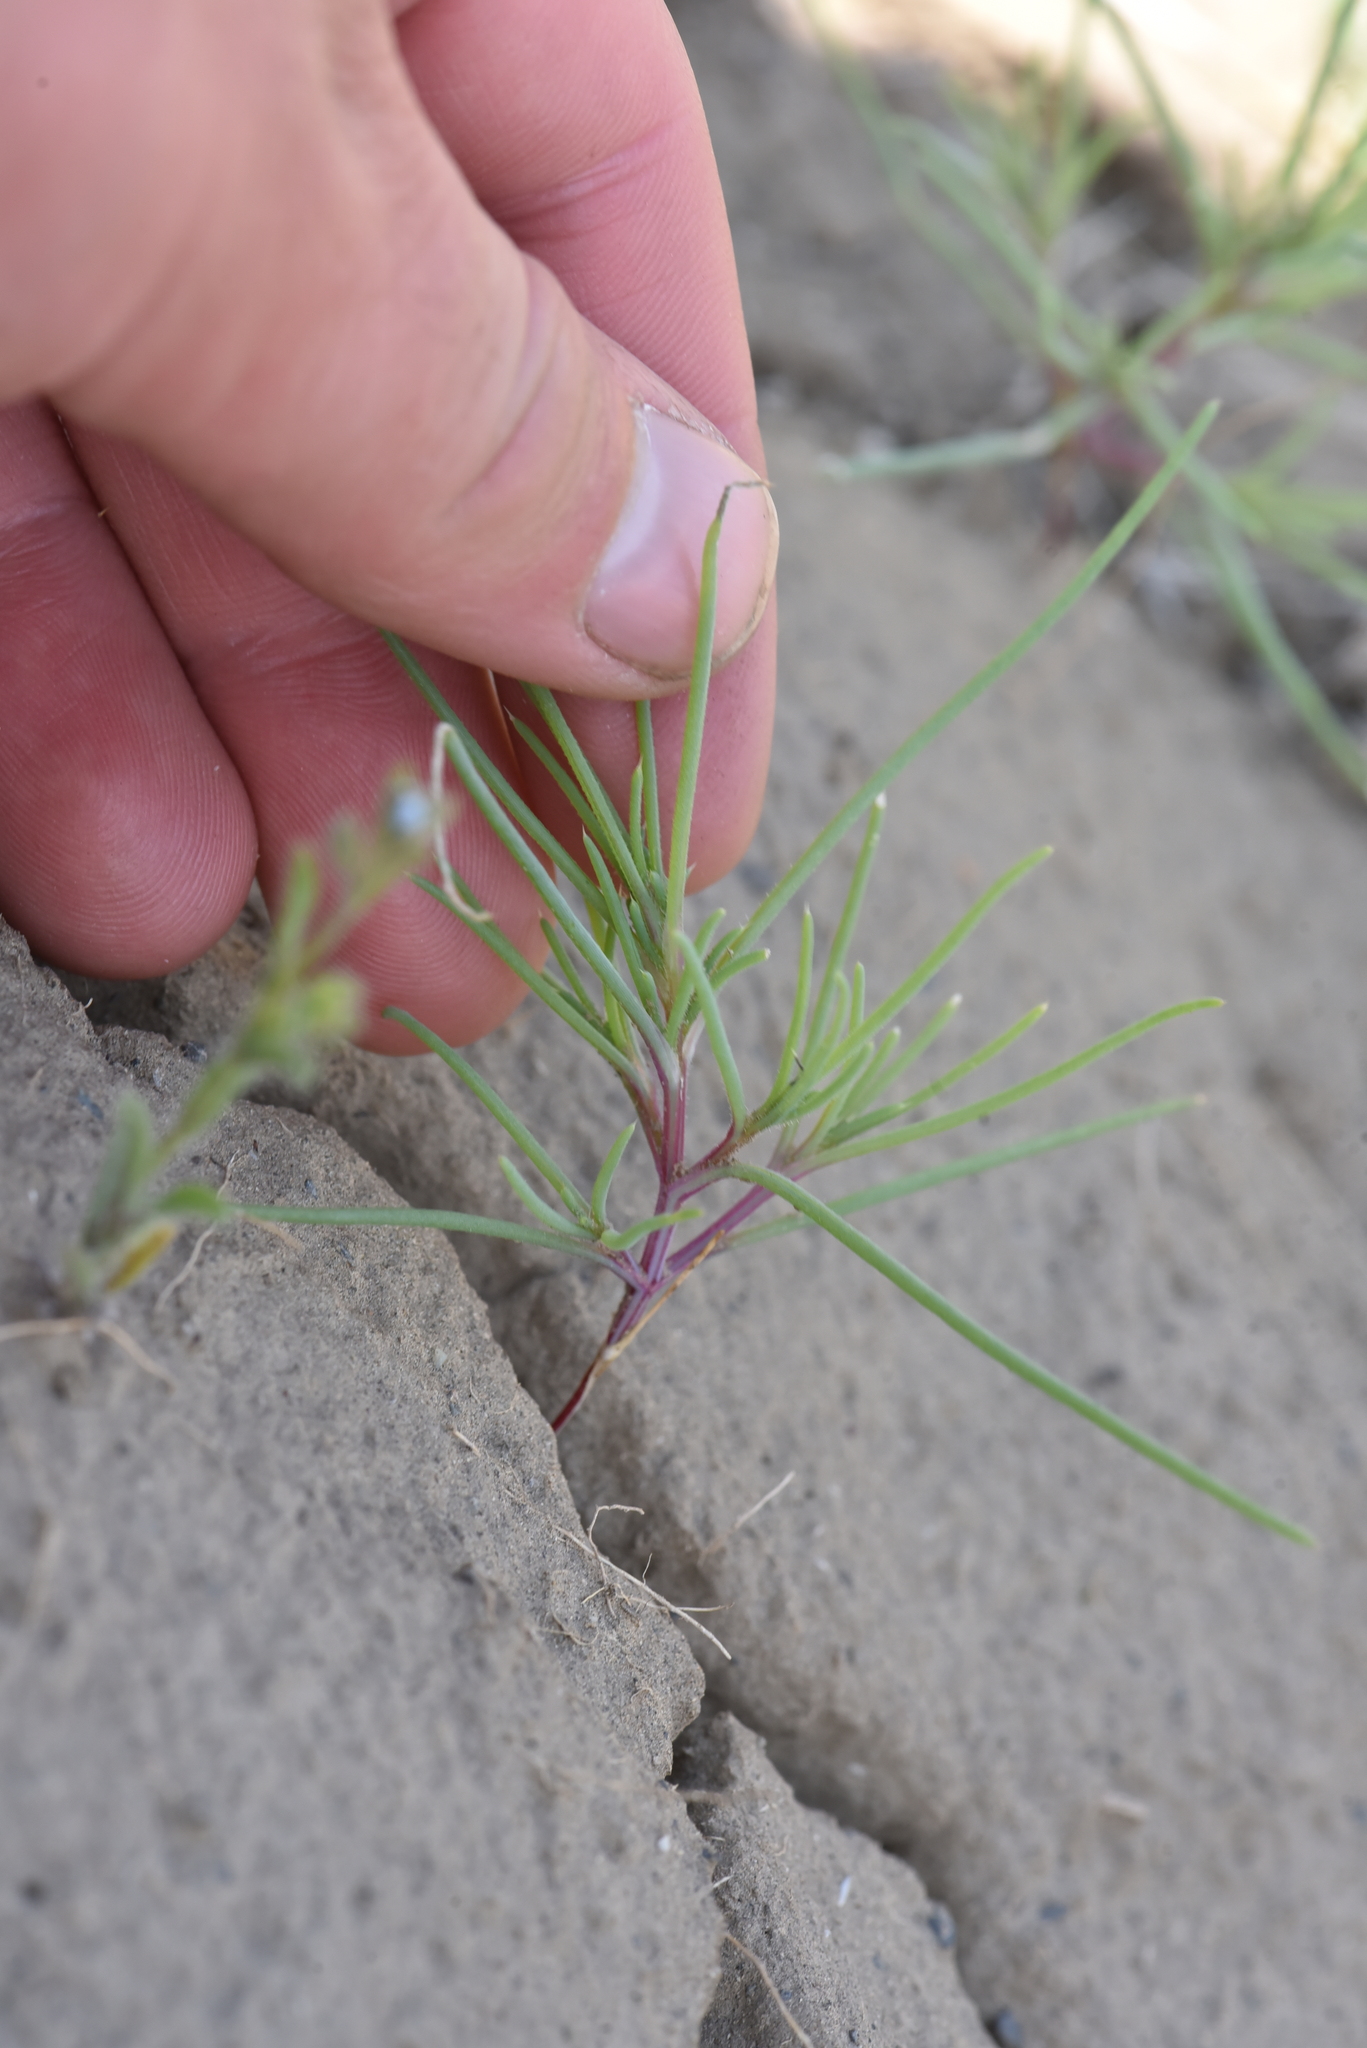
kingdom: Plantae
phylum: Tracheophyta
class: Magnoliopsida
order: Caryophyllales
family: Amaranthaceae
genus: Salsola
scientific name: Salsola tragus
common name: Prickly russian thistle
